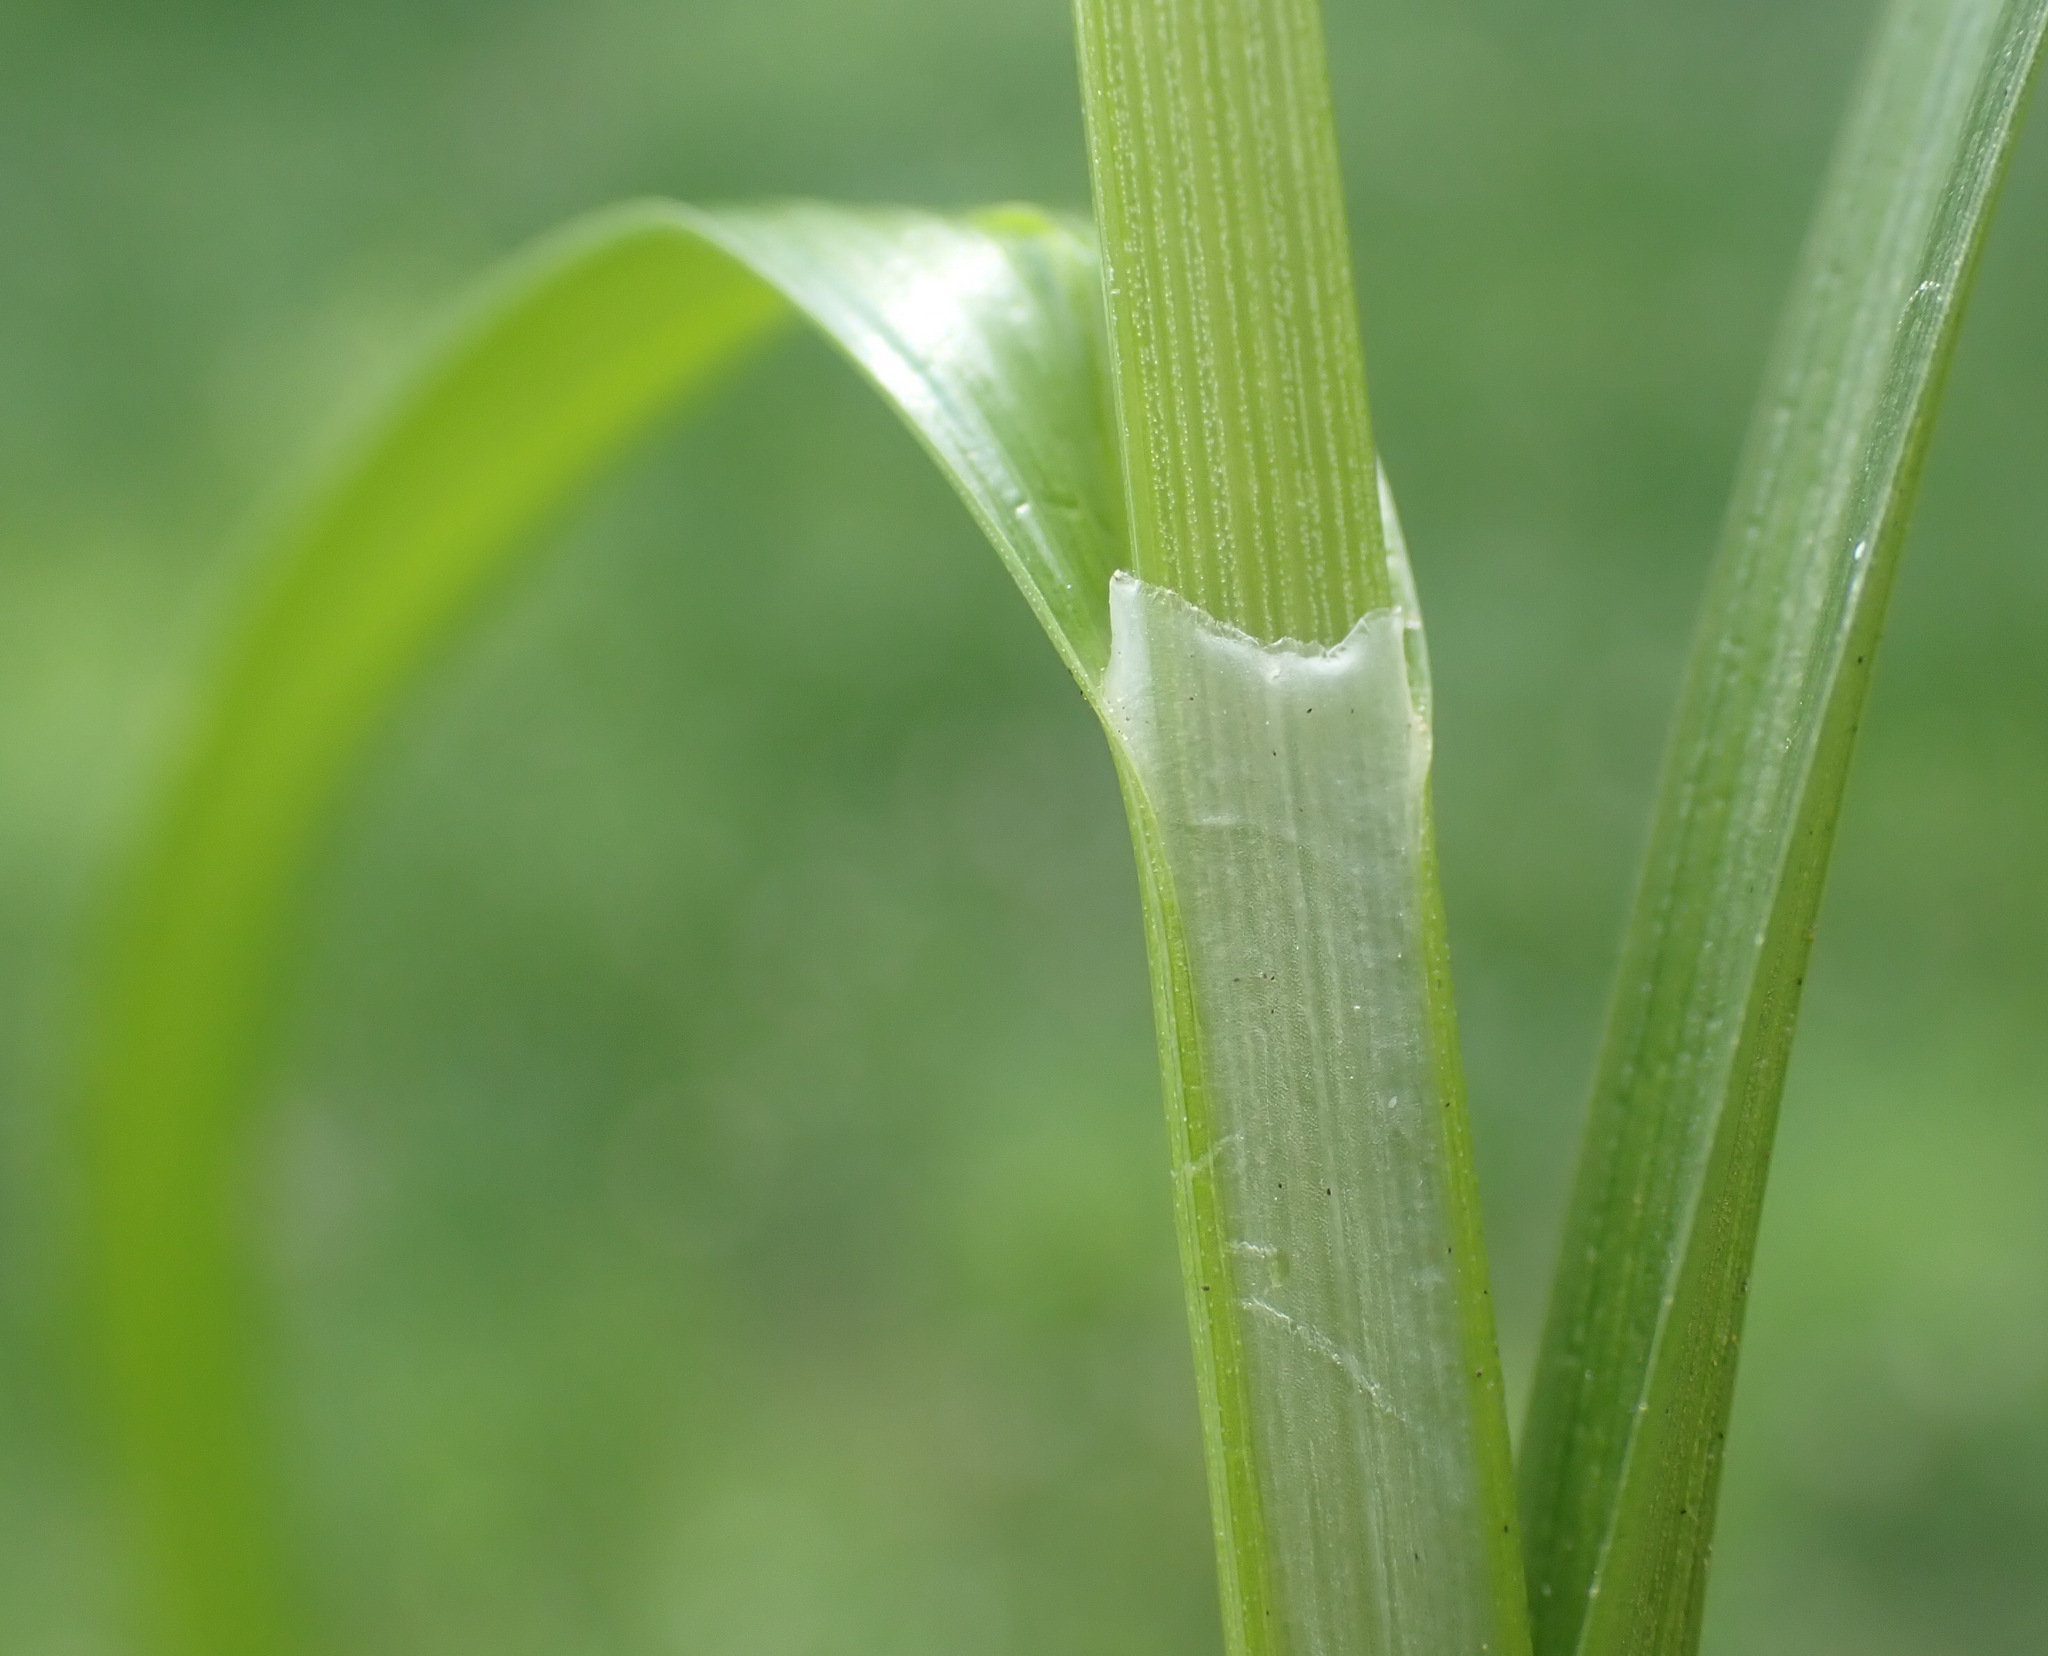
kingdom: Plantae
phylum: Tracheophyta
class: Liliopsida
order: Poales
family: Cyperaceae
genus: Carex
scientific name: Carex otrubae
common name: False fox-sedge
